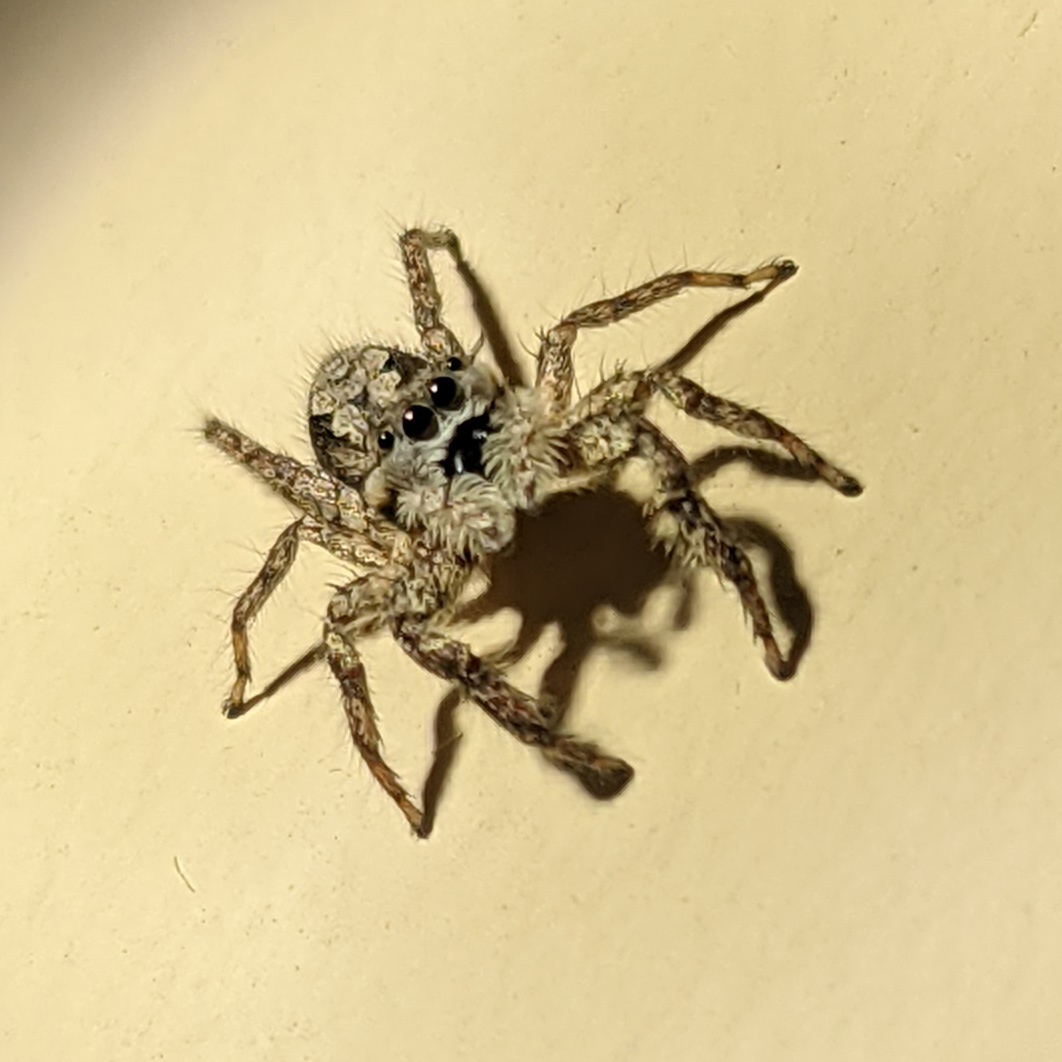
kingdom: Animalia
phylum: Arthropoda
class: Arachnida
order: Araneae
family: Salticidae
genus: Platycryptus
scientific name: Platycryptus undatus
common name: Tan jumping spider
